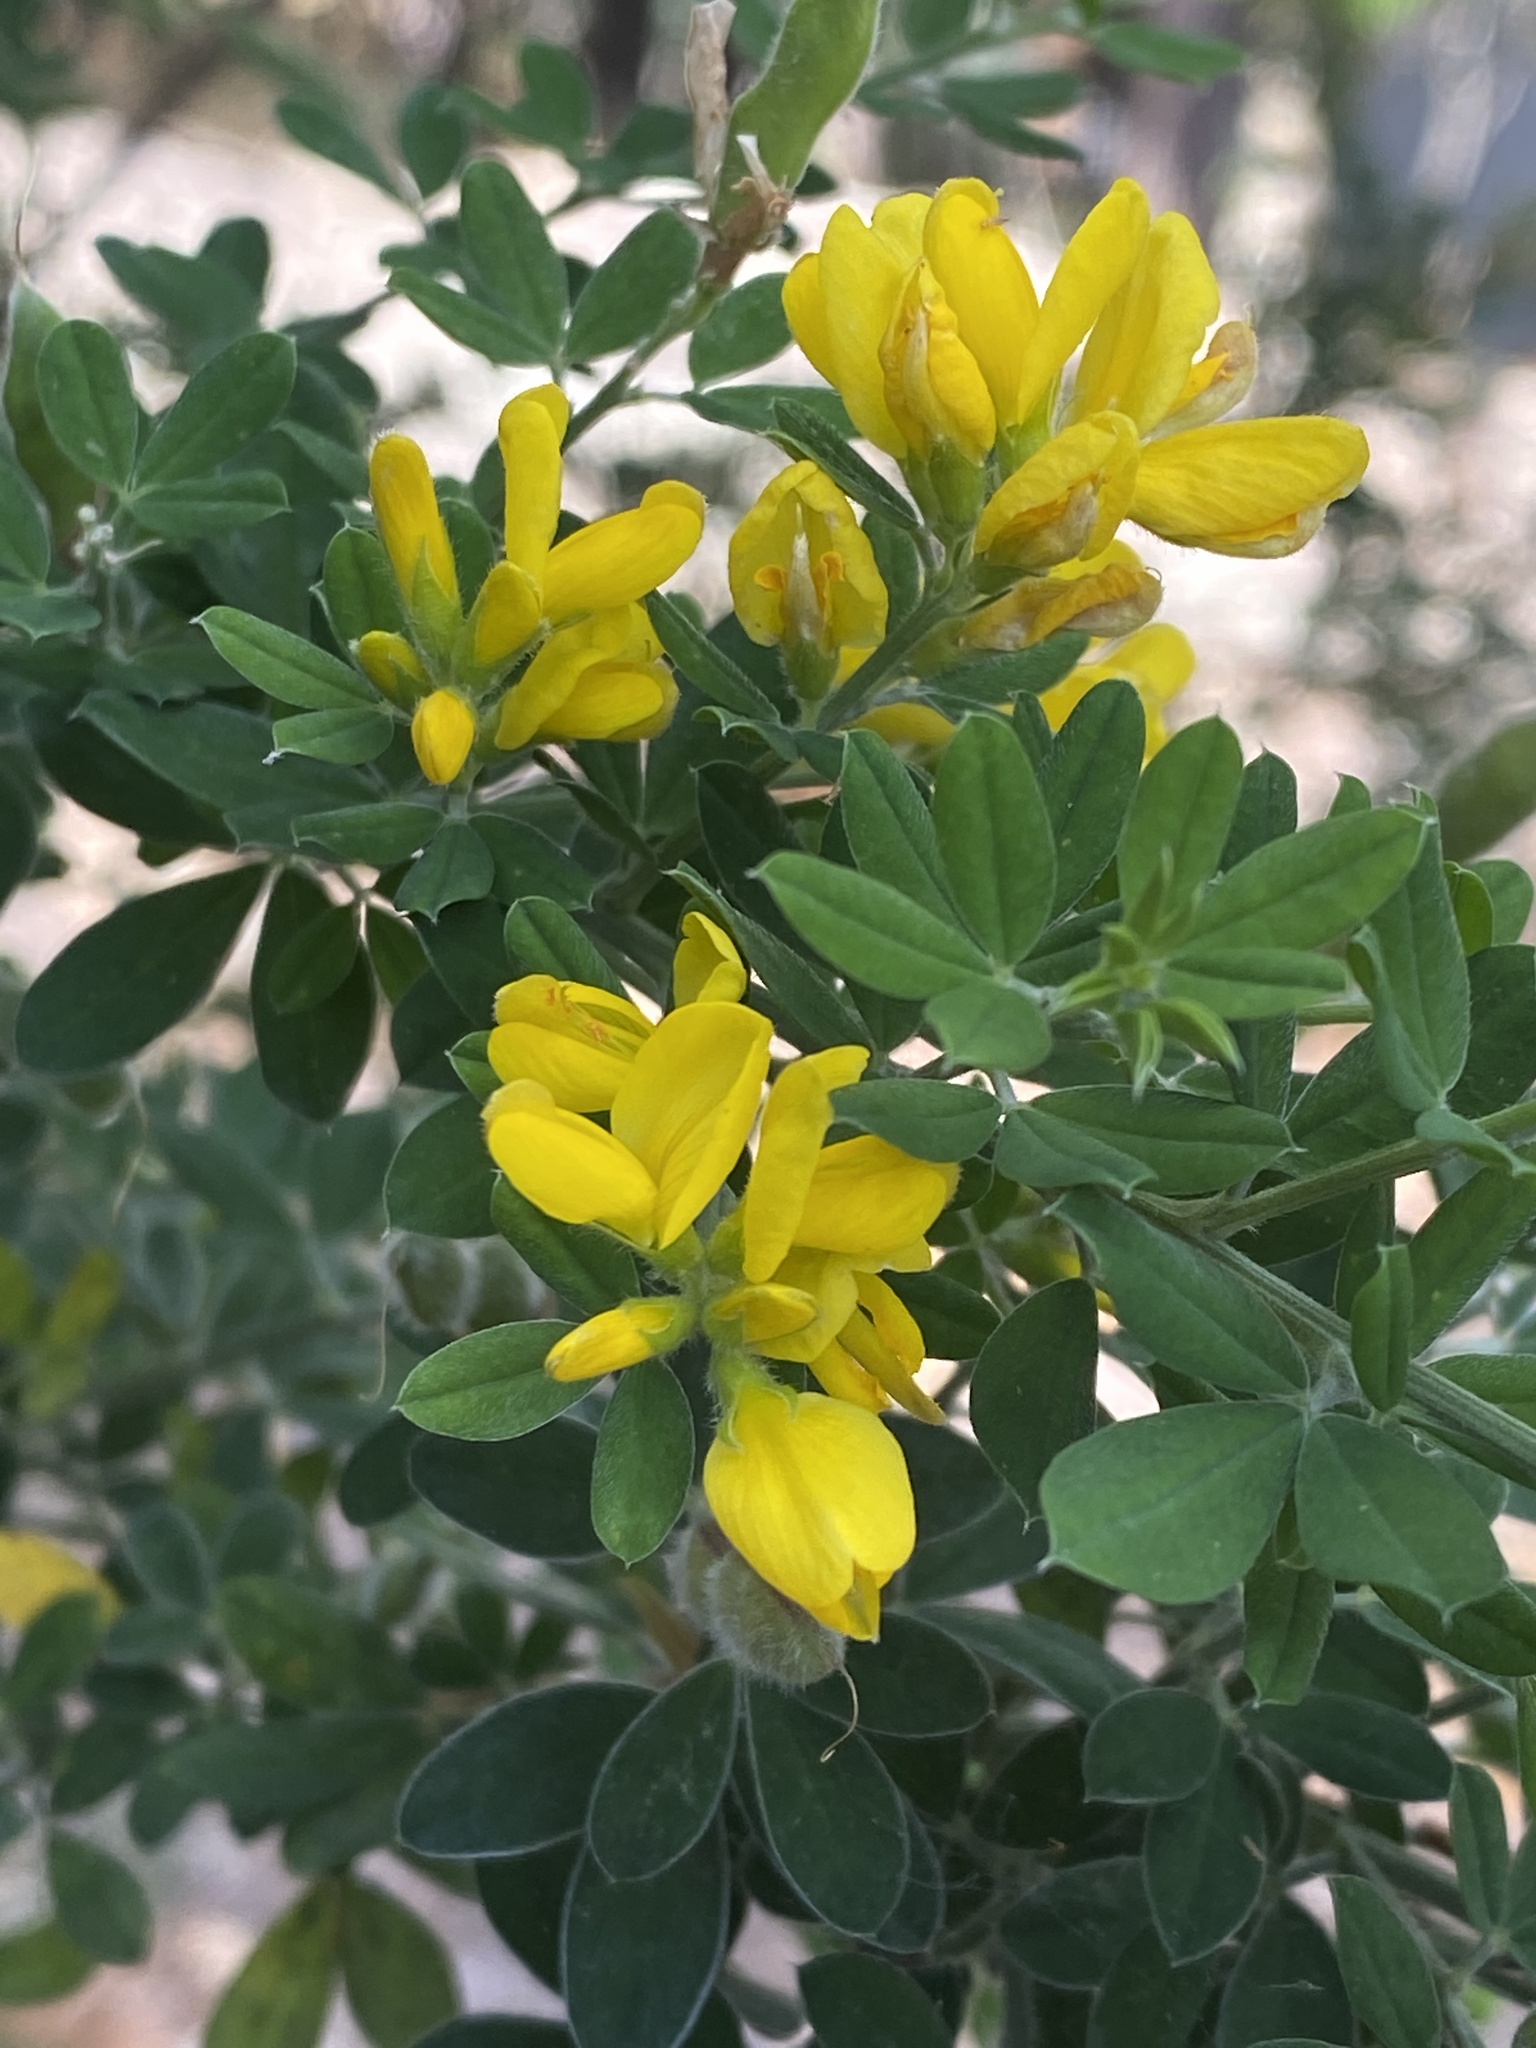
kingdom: Plantae
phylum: Tracheophyta
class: Magnoliopsida
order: Fabales
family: Fabaceae
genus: Genista
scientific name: Genista monspessulana
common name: Montpellier broom
